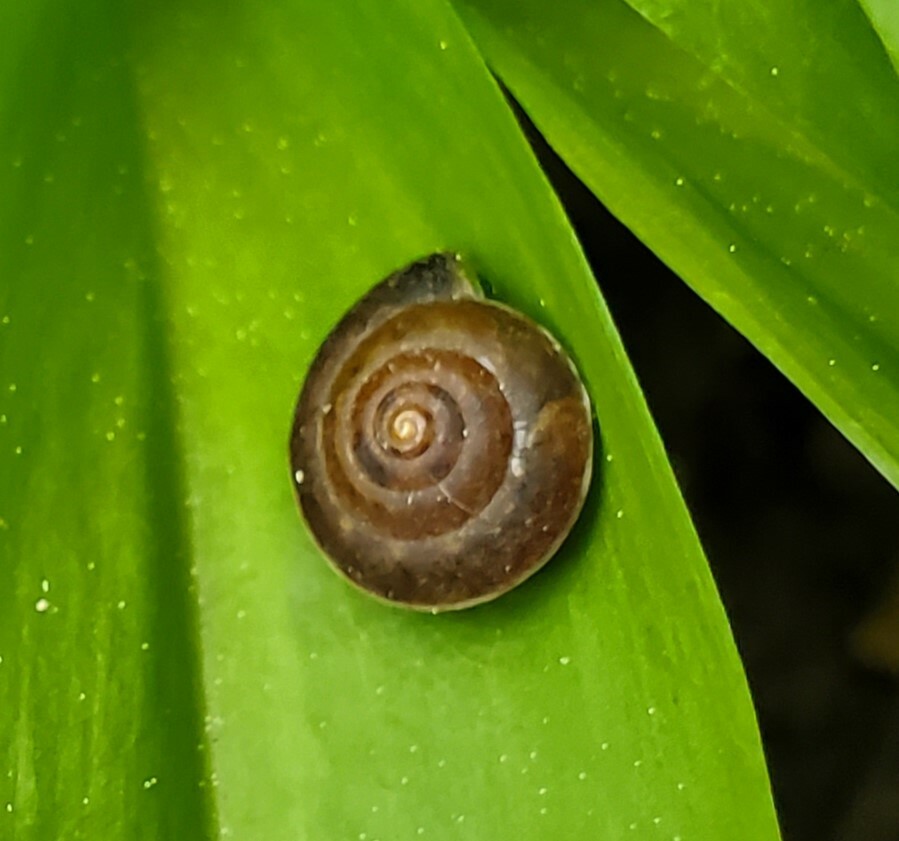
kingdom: Animalia
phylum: Mollusca
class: Gastropoda
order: Stylommatophora
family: Hygromiidae
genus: Hygromia
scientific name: Hygromia cinctella
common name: Girdled snail
